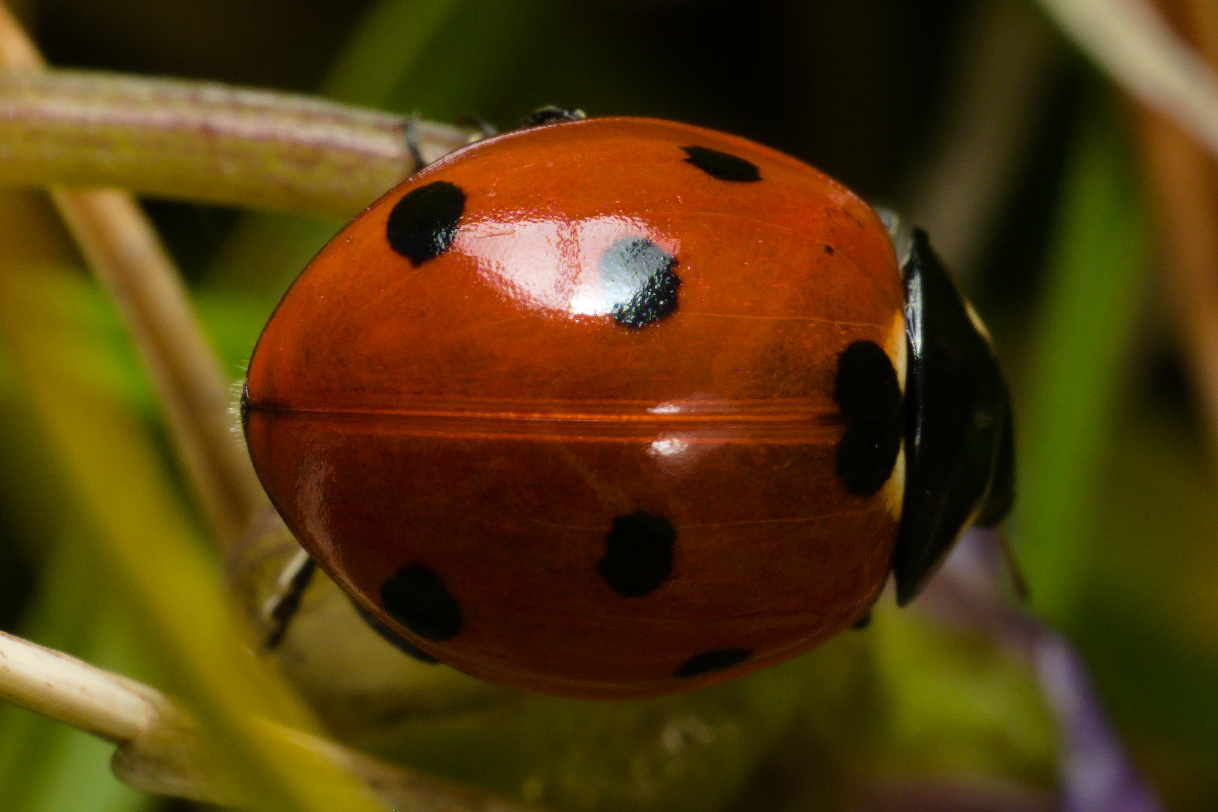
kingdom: Animalia
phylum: Arthropoda
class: Insecta
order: Coleoptera
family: Coccinellidae
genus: Coccinella
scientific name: Coccinella septempunctata
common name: Sevenspotted lady beetle
